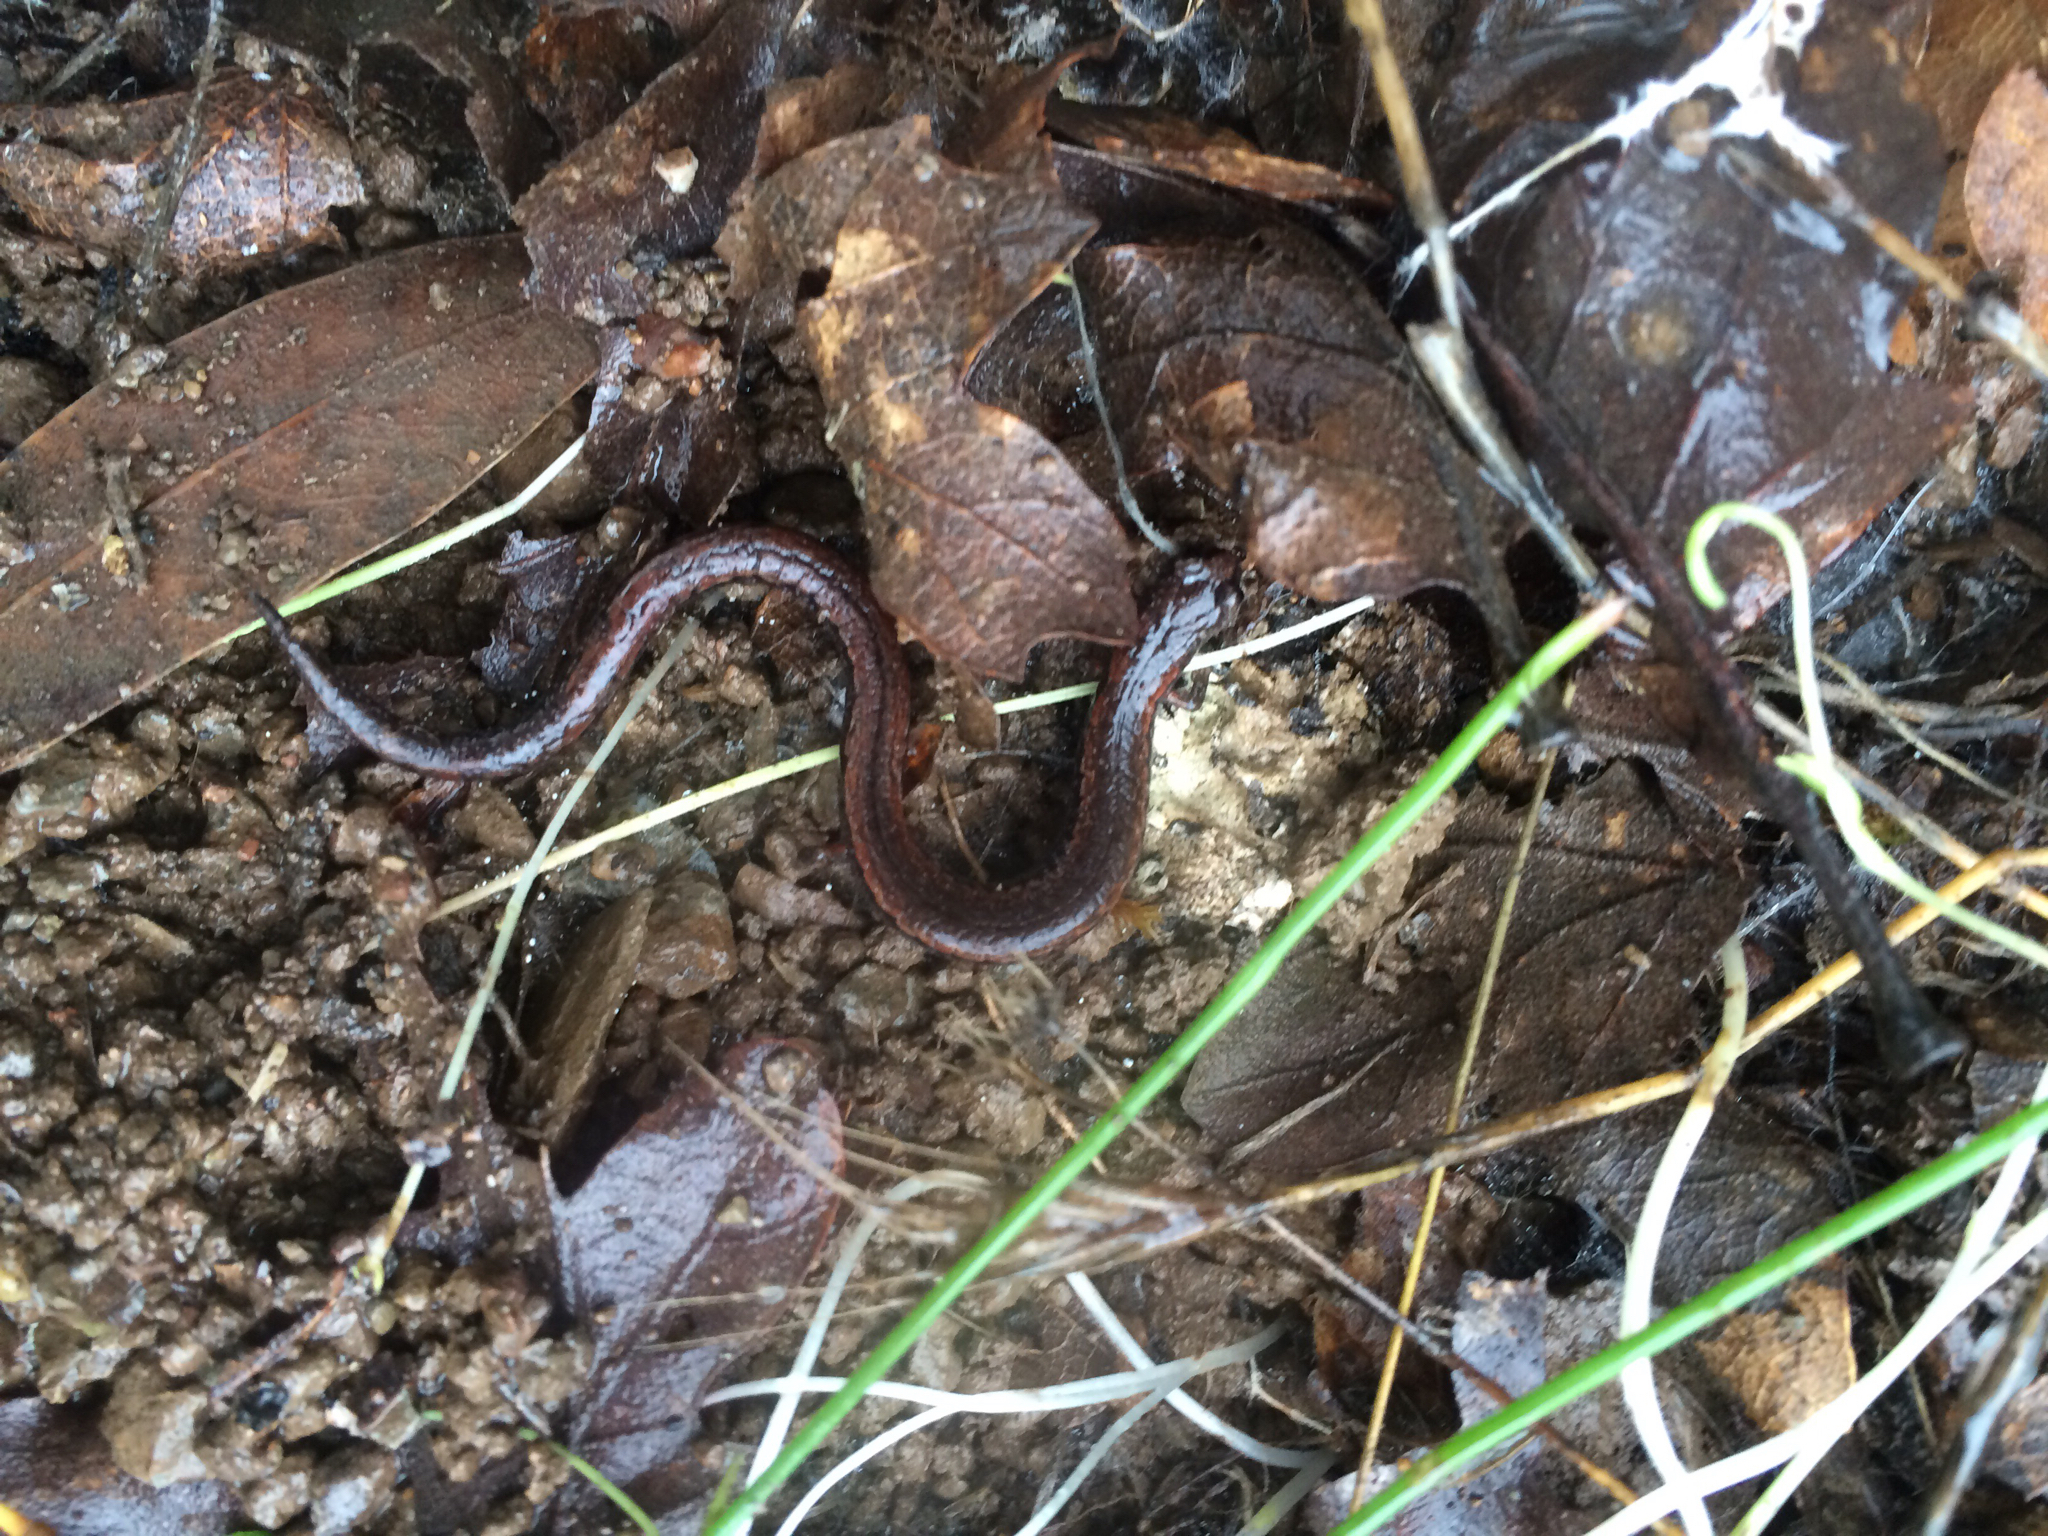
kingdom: Animalia
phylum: Chordata
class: Amphibia
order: Caudata
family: Plethodontidae
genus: Batrachoseps
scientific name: Batrachoseps attenuatus
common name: California slender salamander
